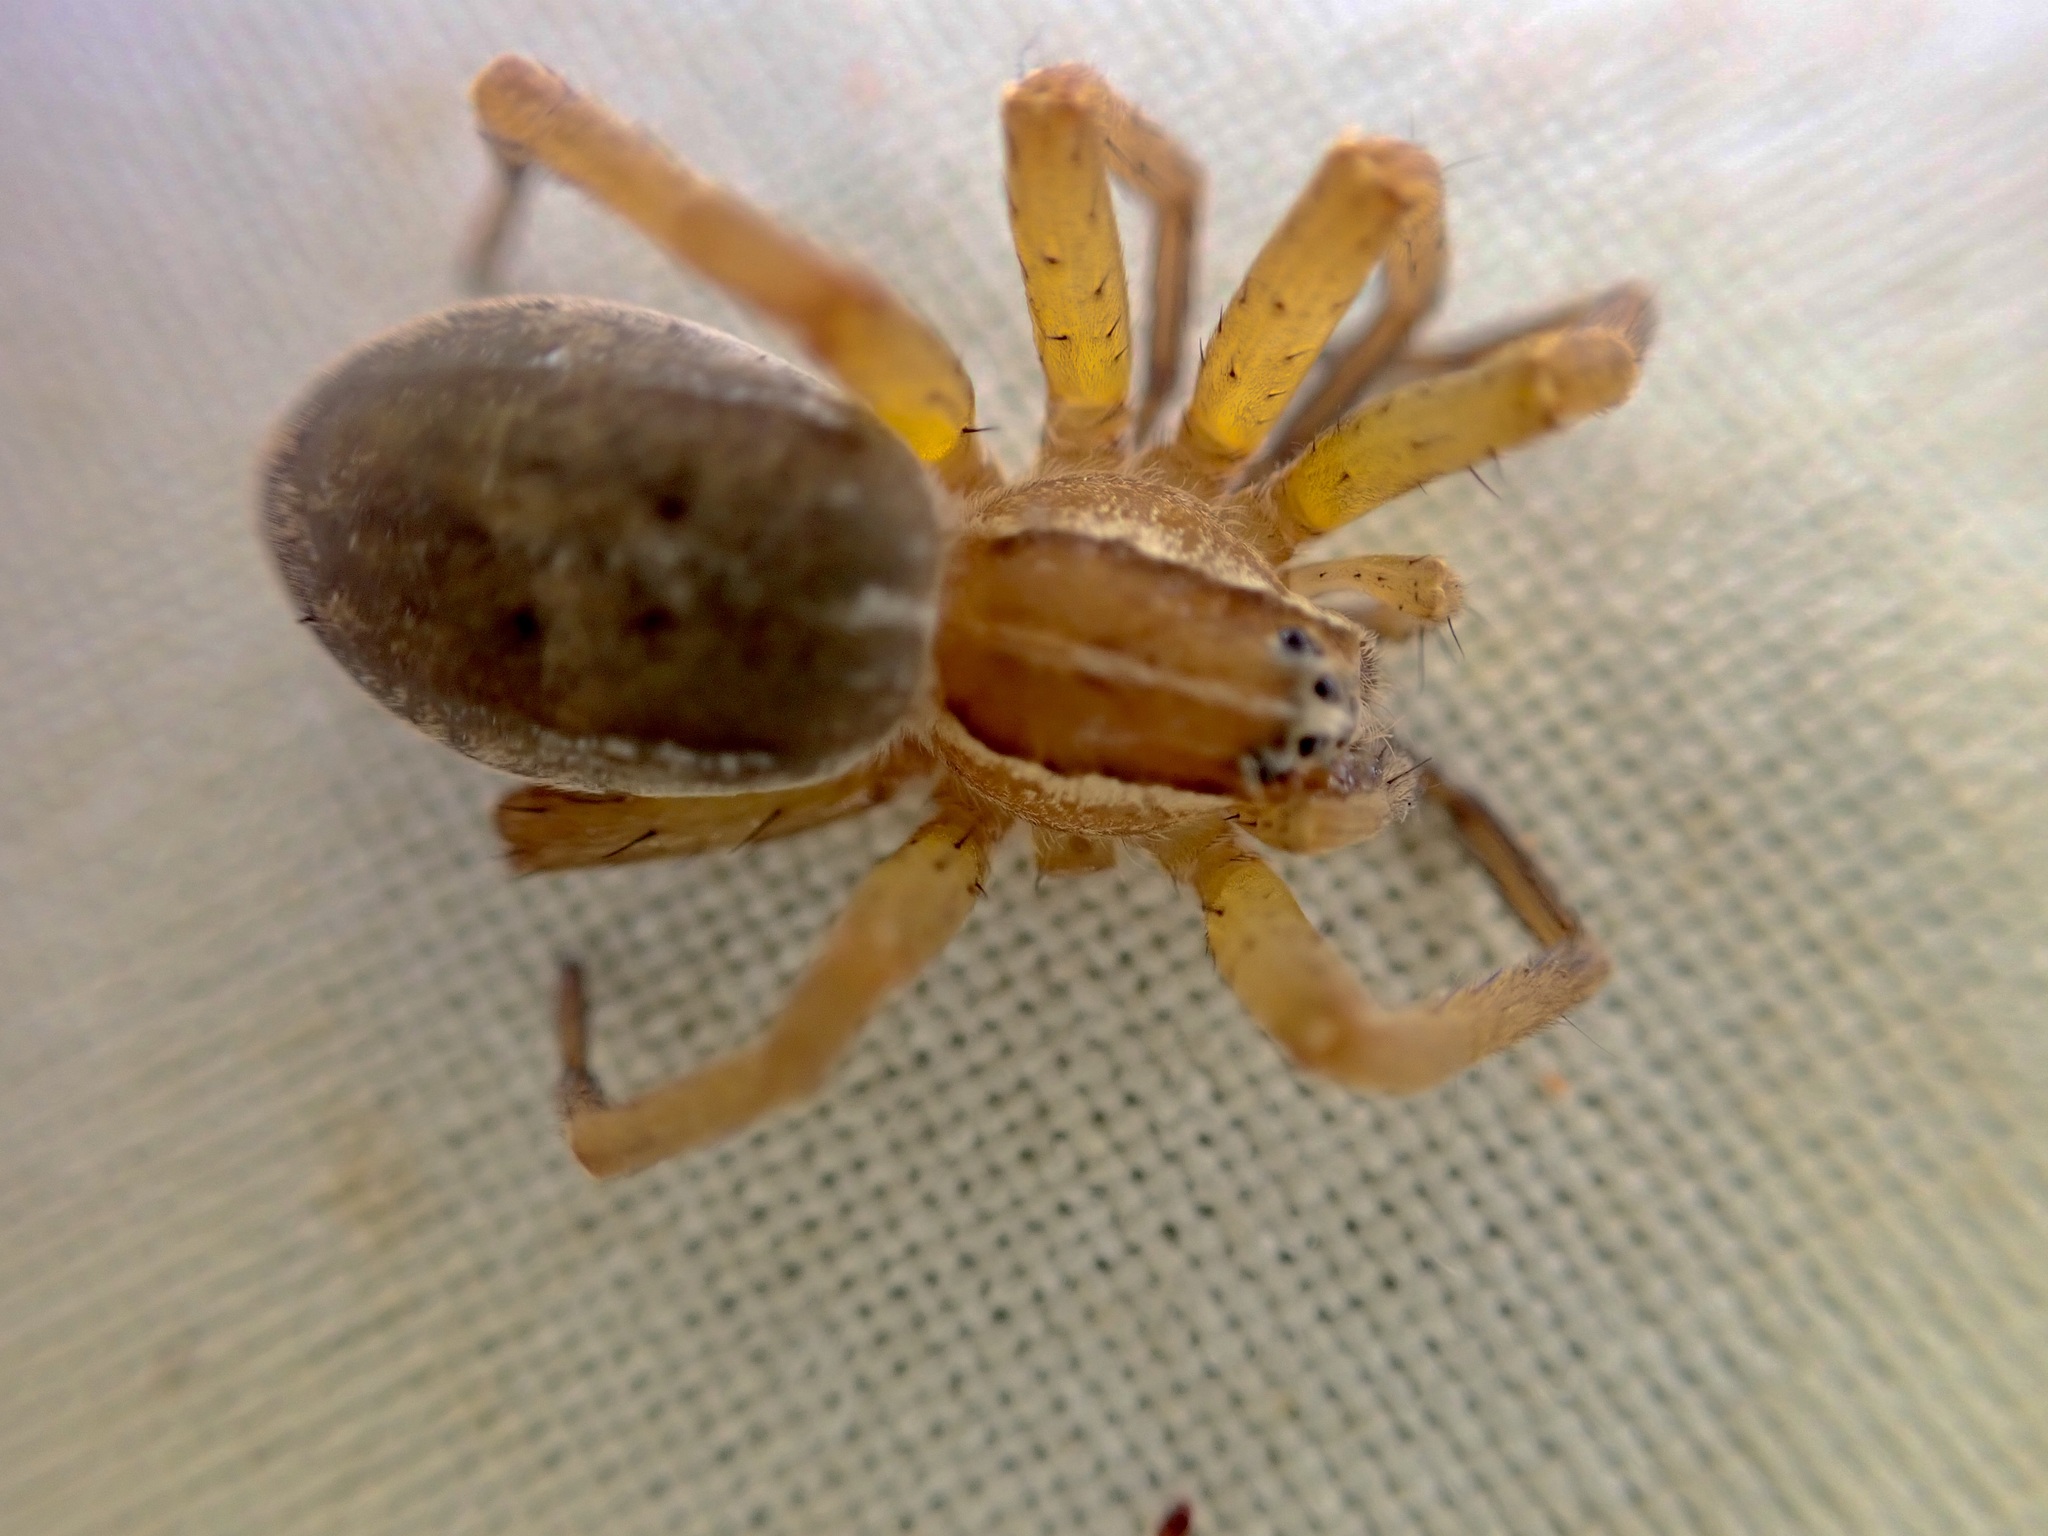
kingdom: Animalia
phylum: Arthropoda
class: Arachnida
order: Araneae
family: Pisauridae
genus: Dolomedes
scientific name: Dolomedes minor
